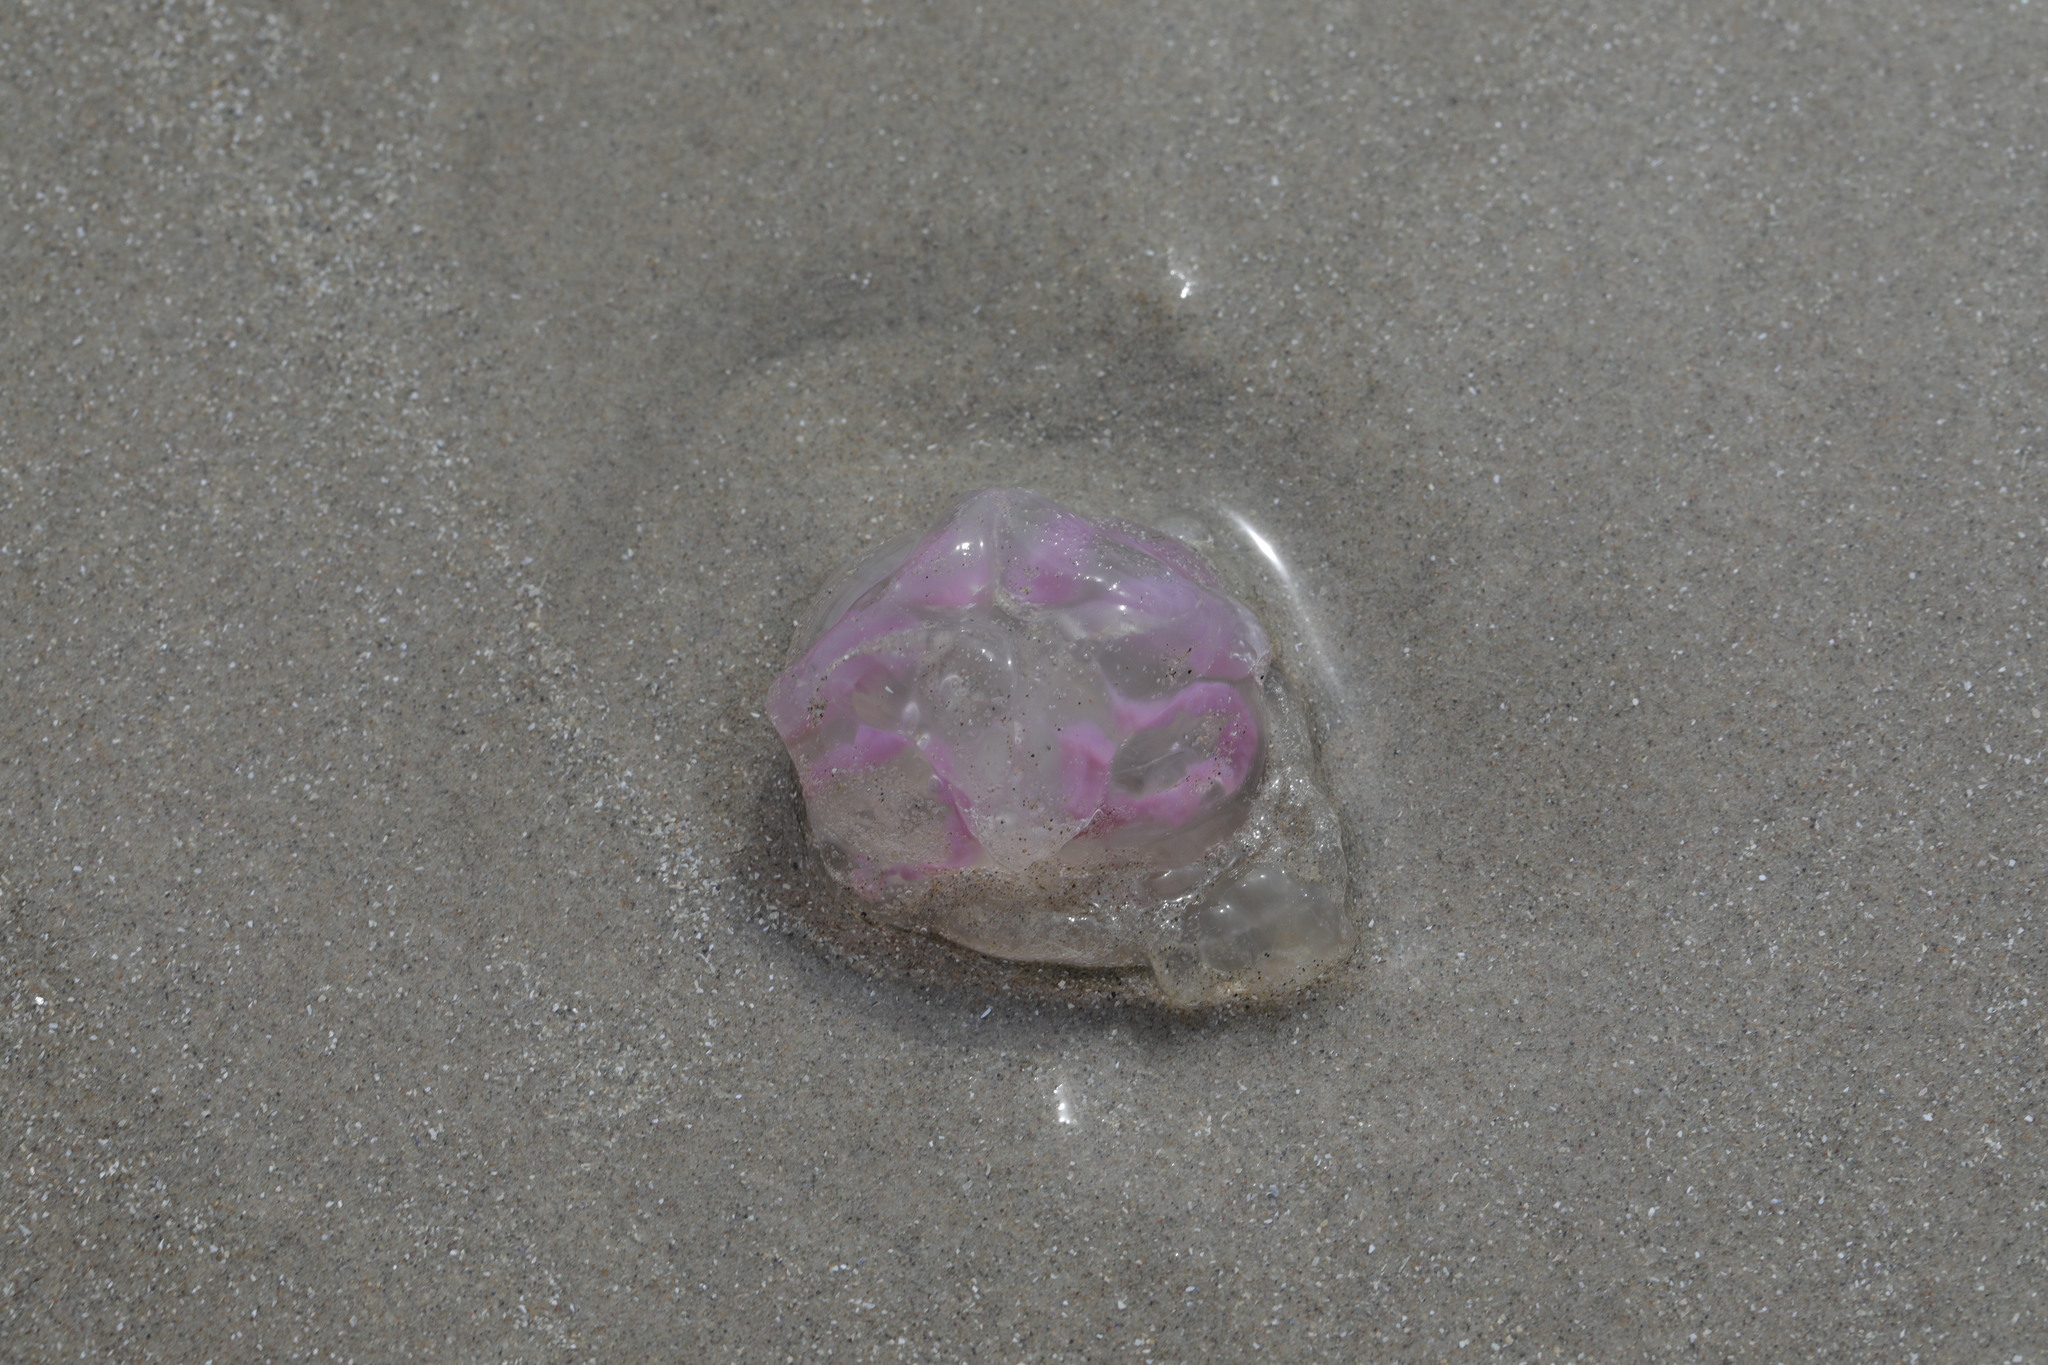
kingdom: Animalia
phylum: Cnidaria
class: Scyphozoa
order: Semaeostomeae
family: Ulmaridae
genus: Aurelia
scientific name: Aurelia aurita
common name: Moon jellyfish
